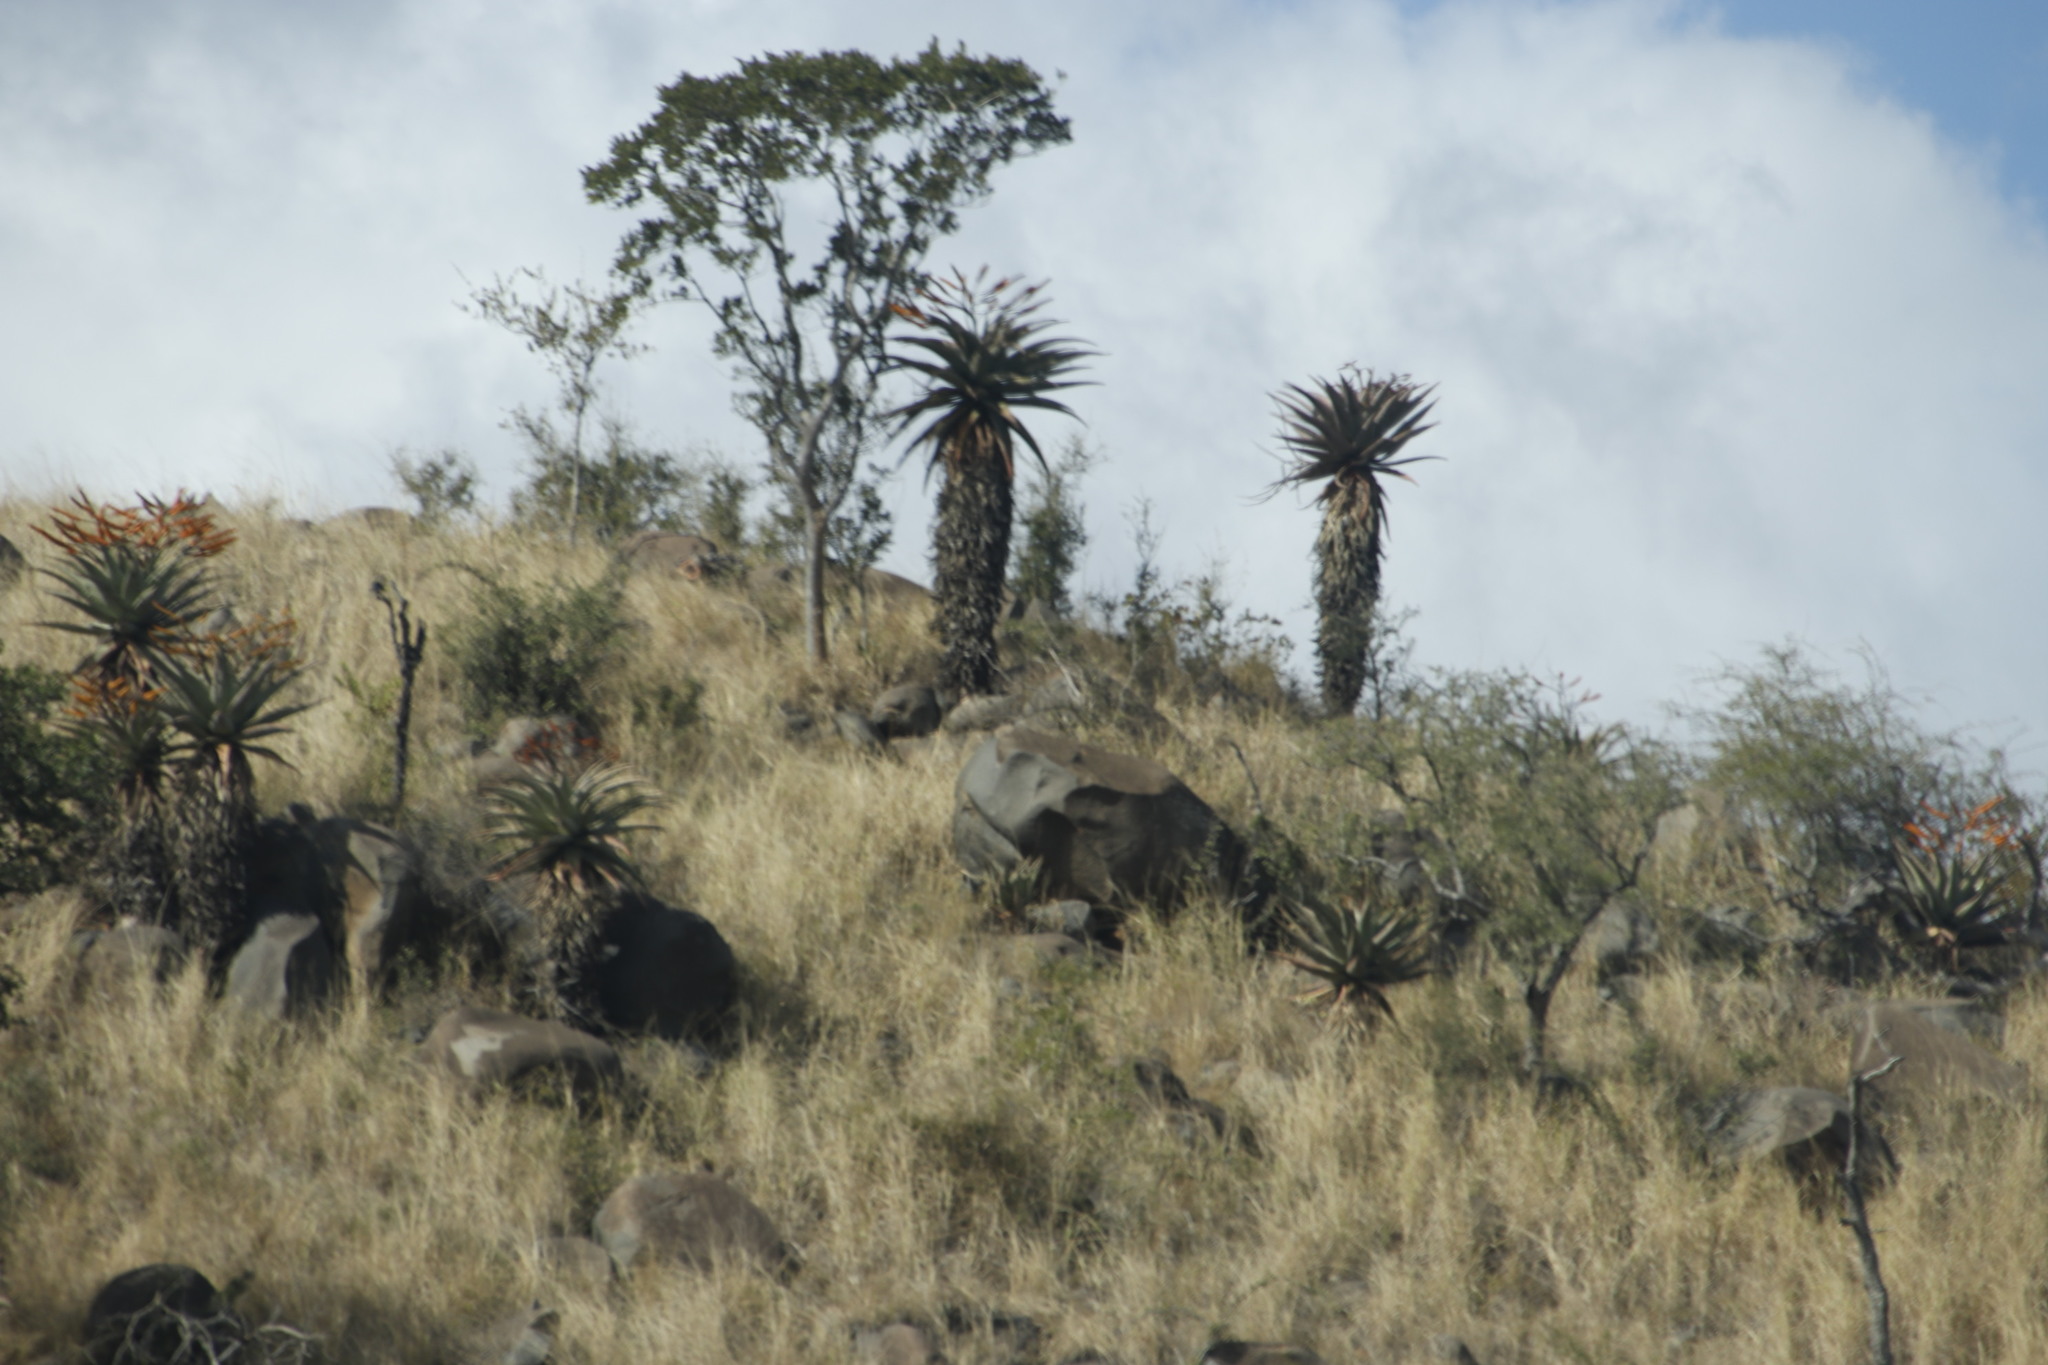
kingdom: Plantae
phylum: Tracheophyta
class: Liliopsida
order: Asparagales
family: Asphodelaceae
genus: Aloe
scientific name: Aloe marlothii
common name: Flat-flowered aloe
